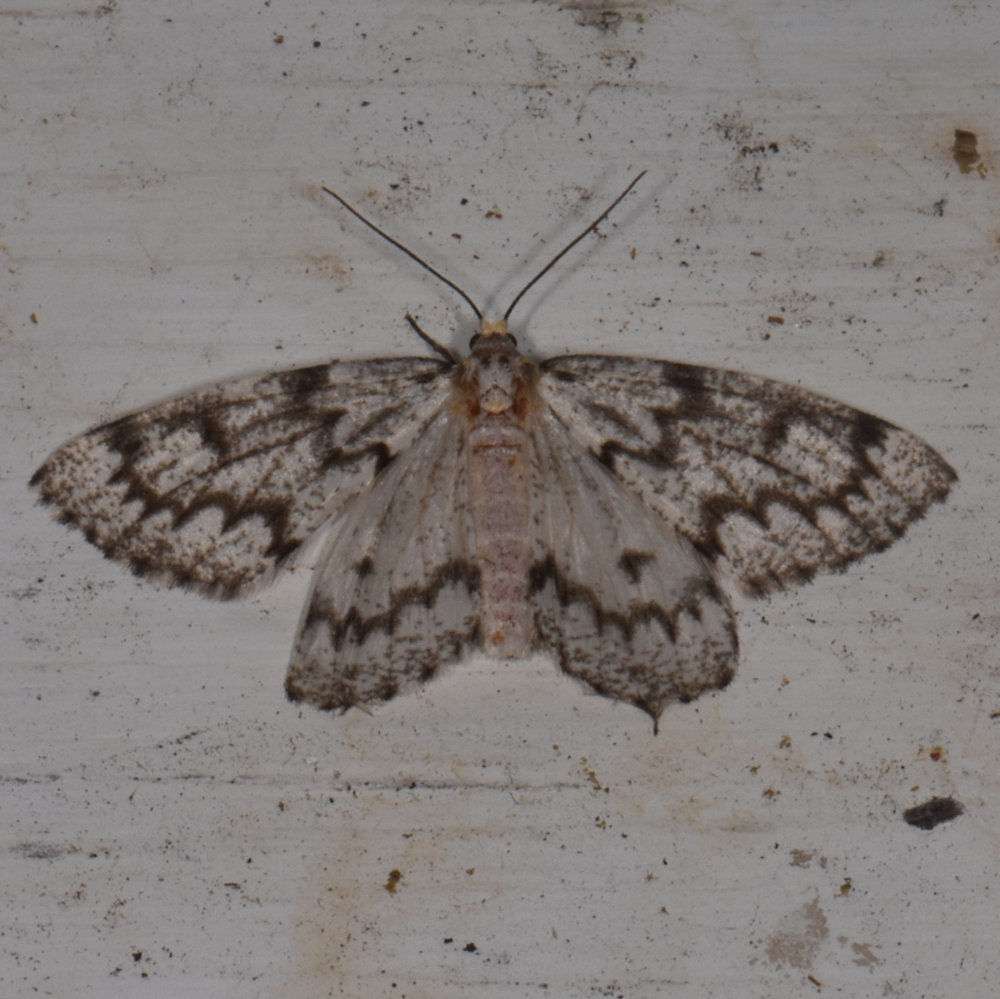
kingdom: Animalia
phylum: Arthropoda
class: Insecta
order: Lepidoptera
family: Geometridae
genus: Nepytia
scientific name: Nepytia canosaria
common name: False hemlock looper
